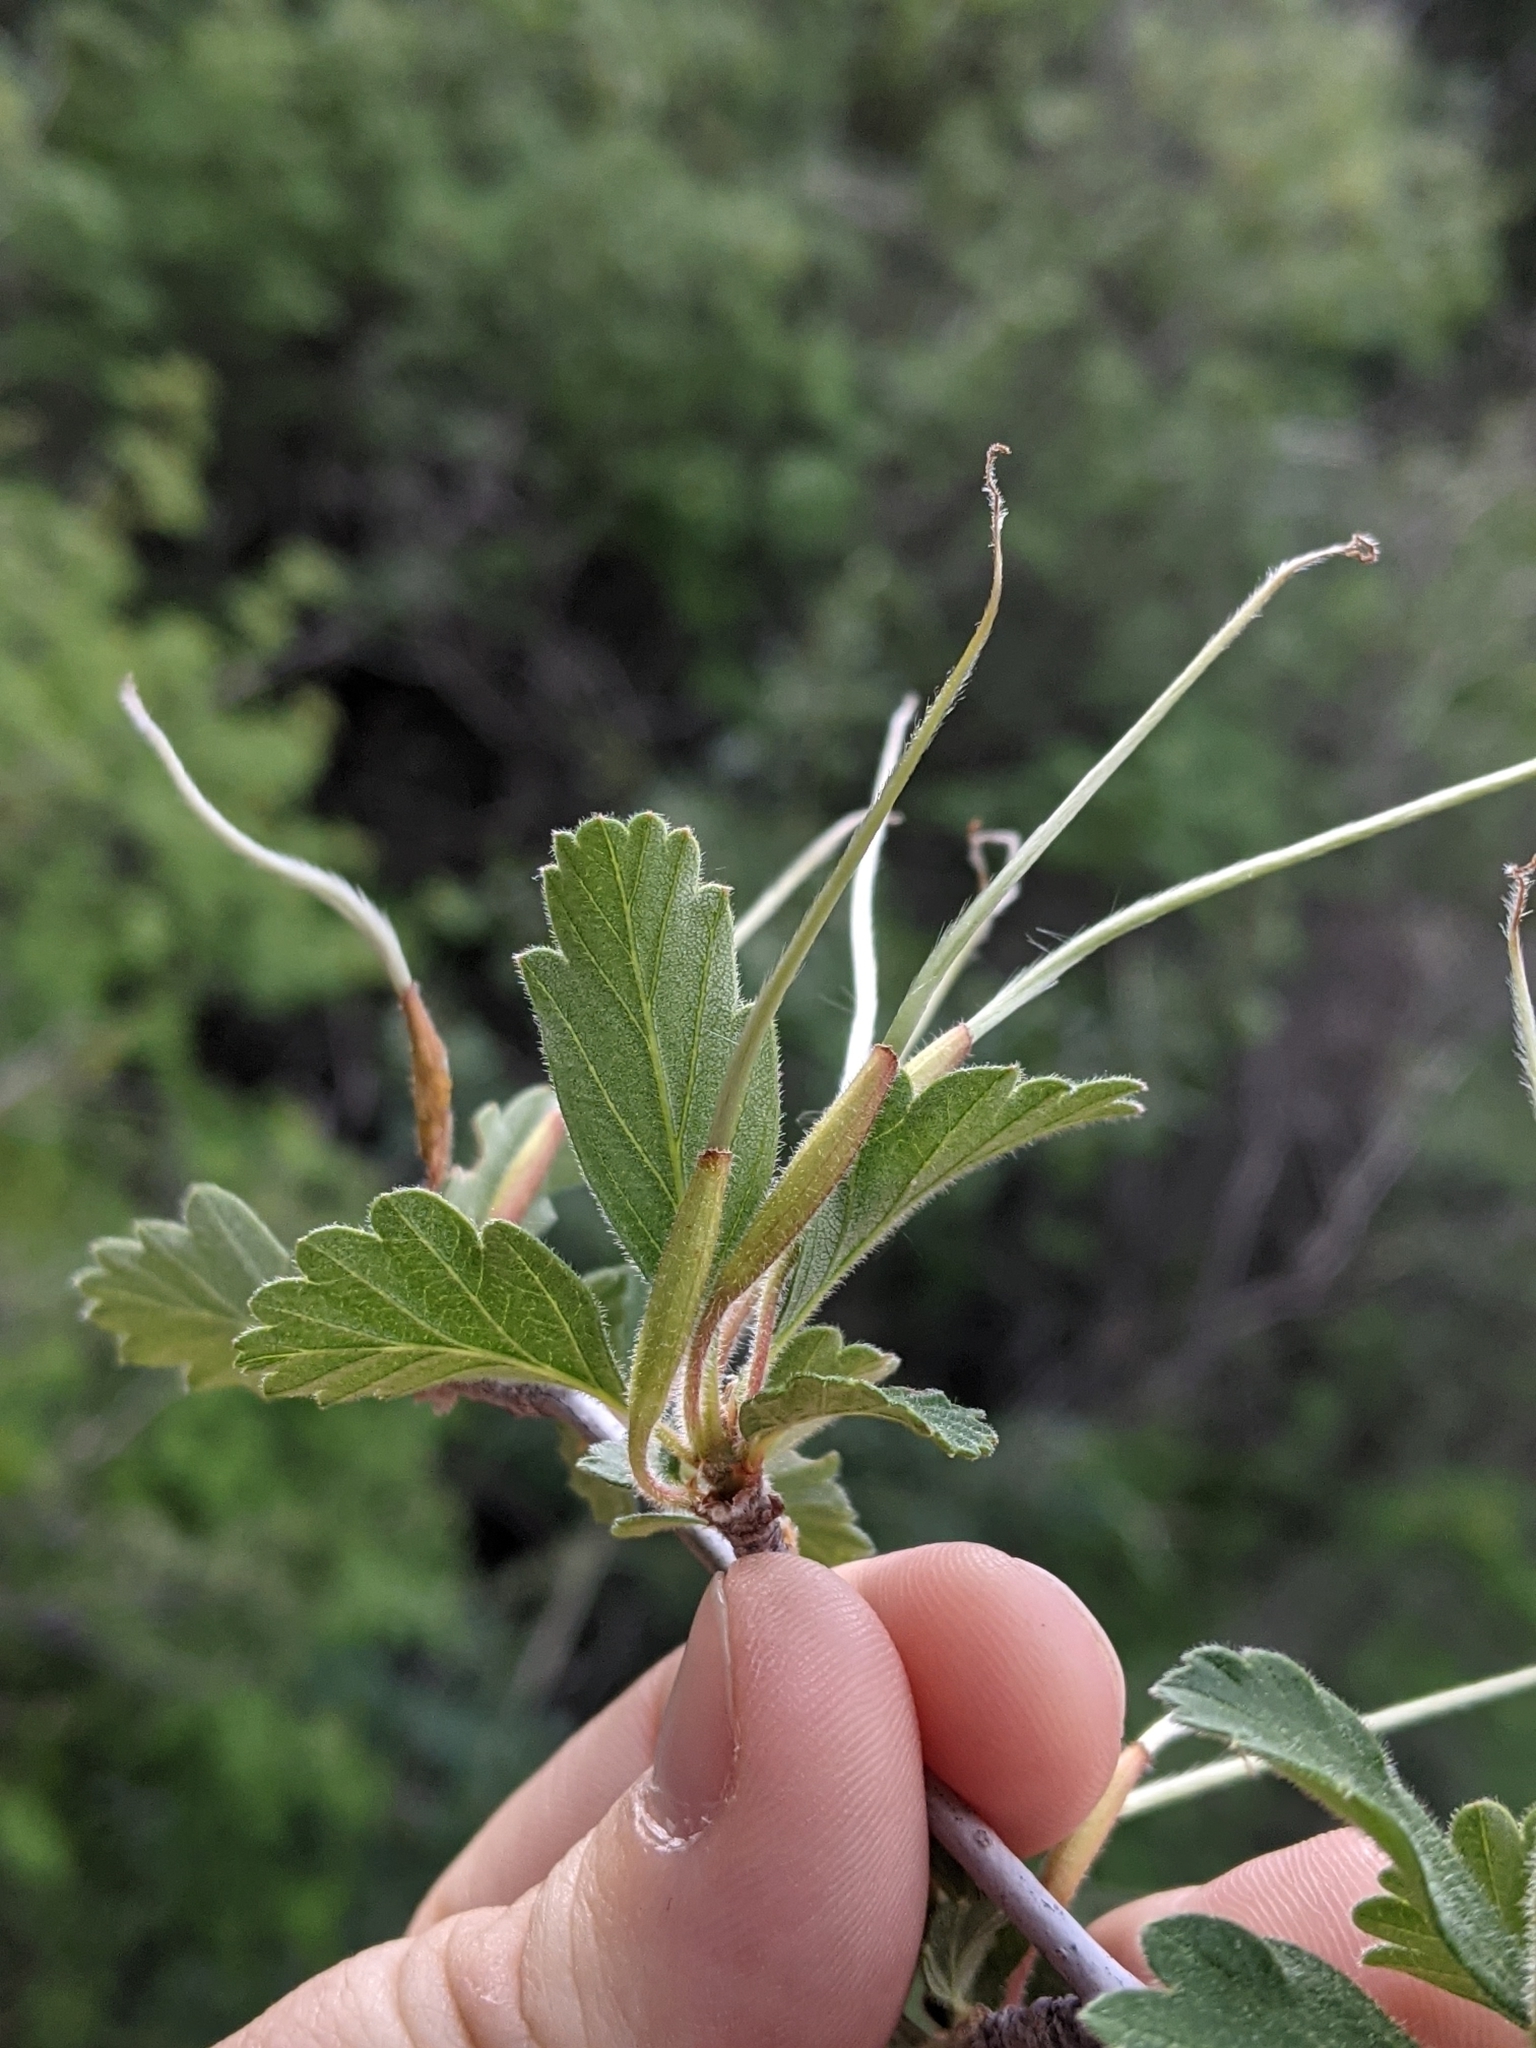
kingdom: Plantae
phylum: Tracheophyta
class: Magnoliopsida
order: Rosales
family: Rosaceae
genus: Cercocarpus
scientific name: Cercocarpus montanus
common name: Alder-leaf cercocarpus
